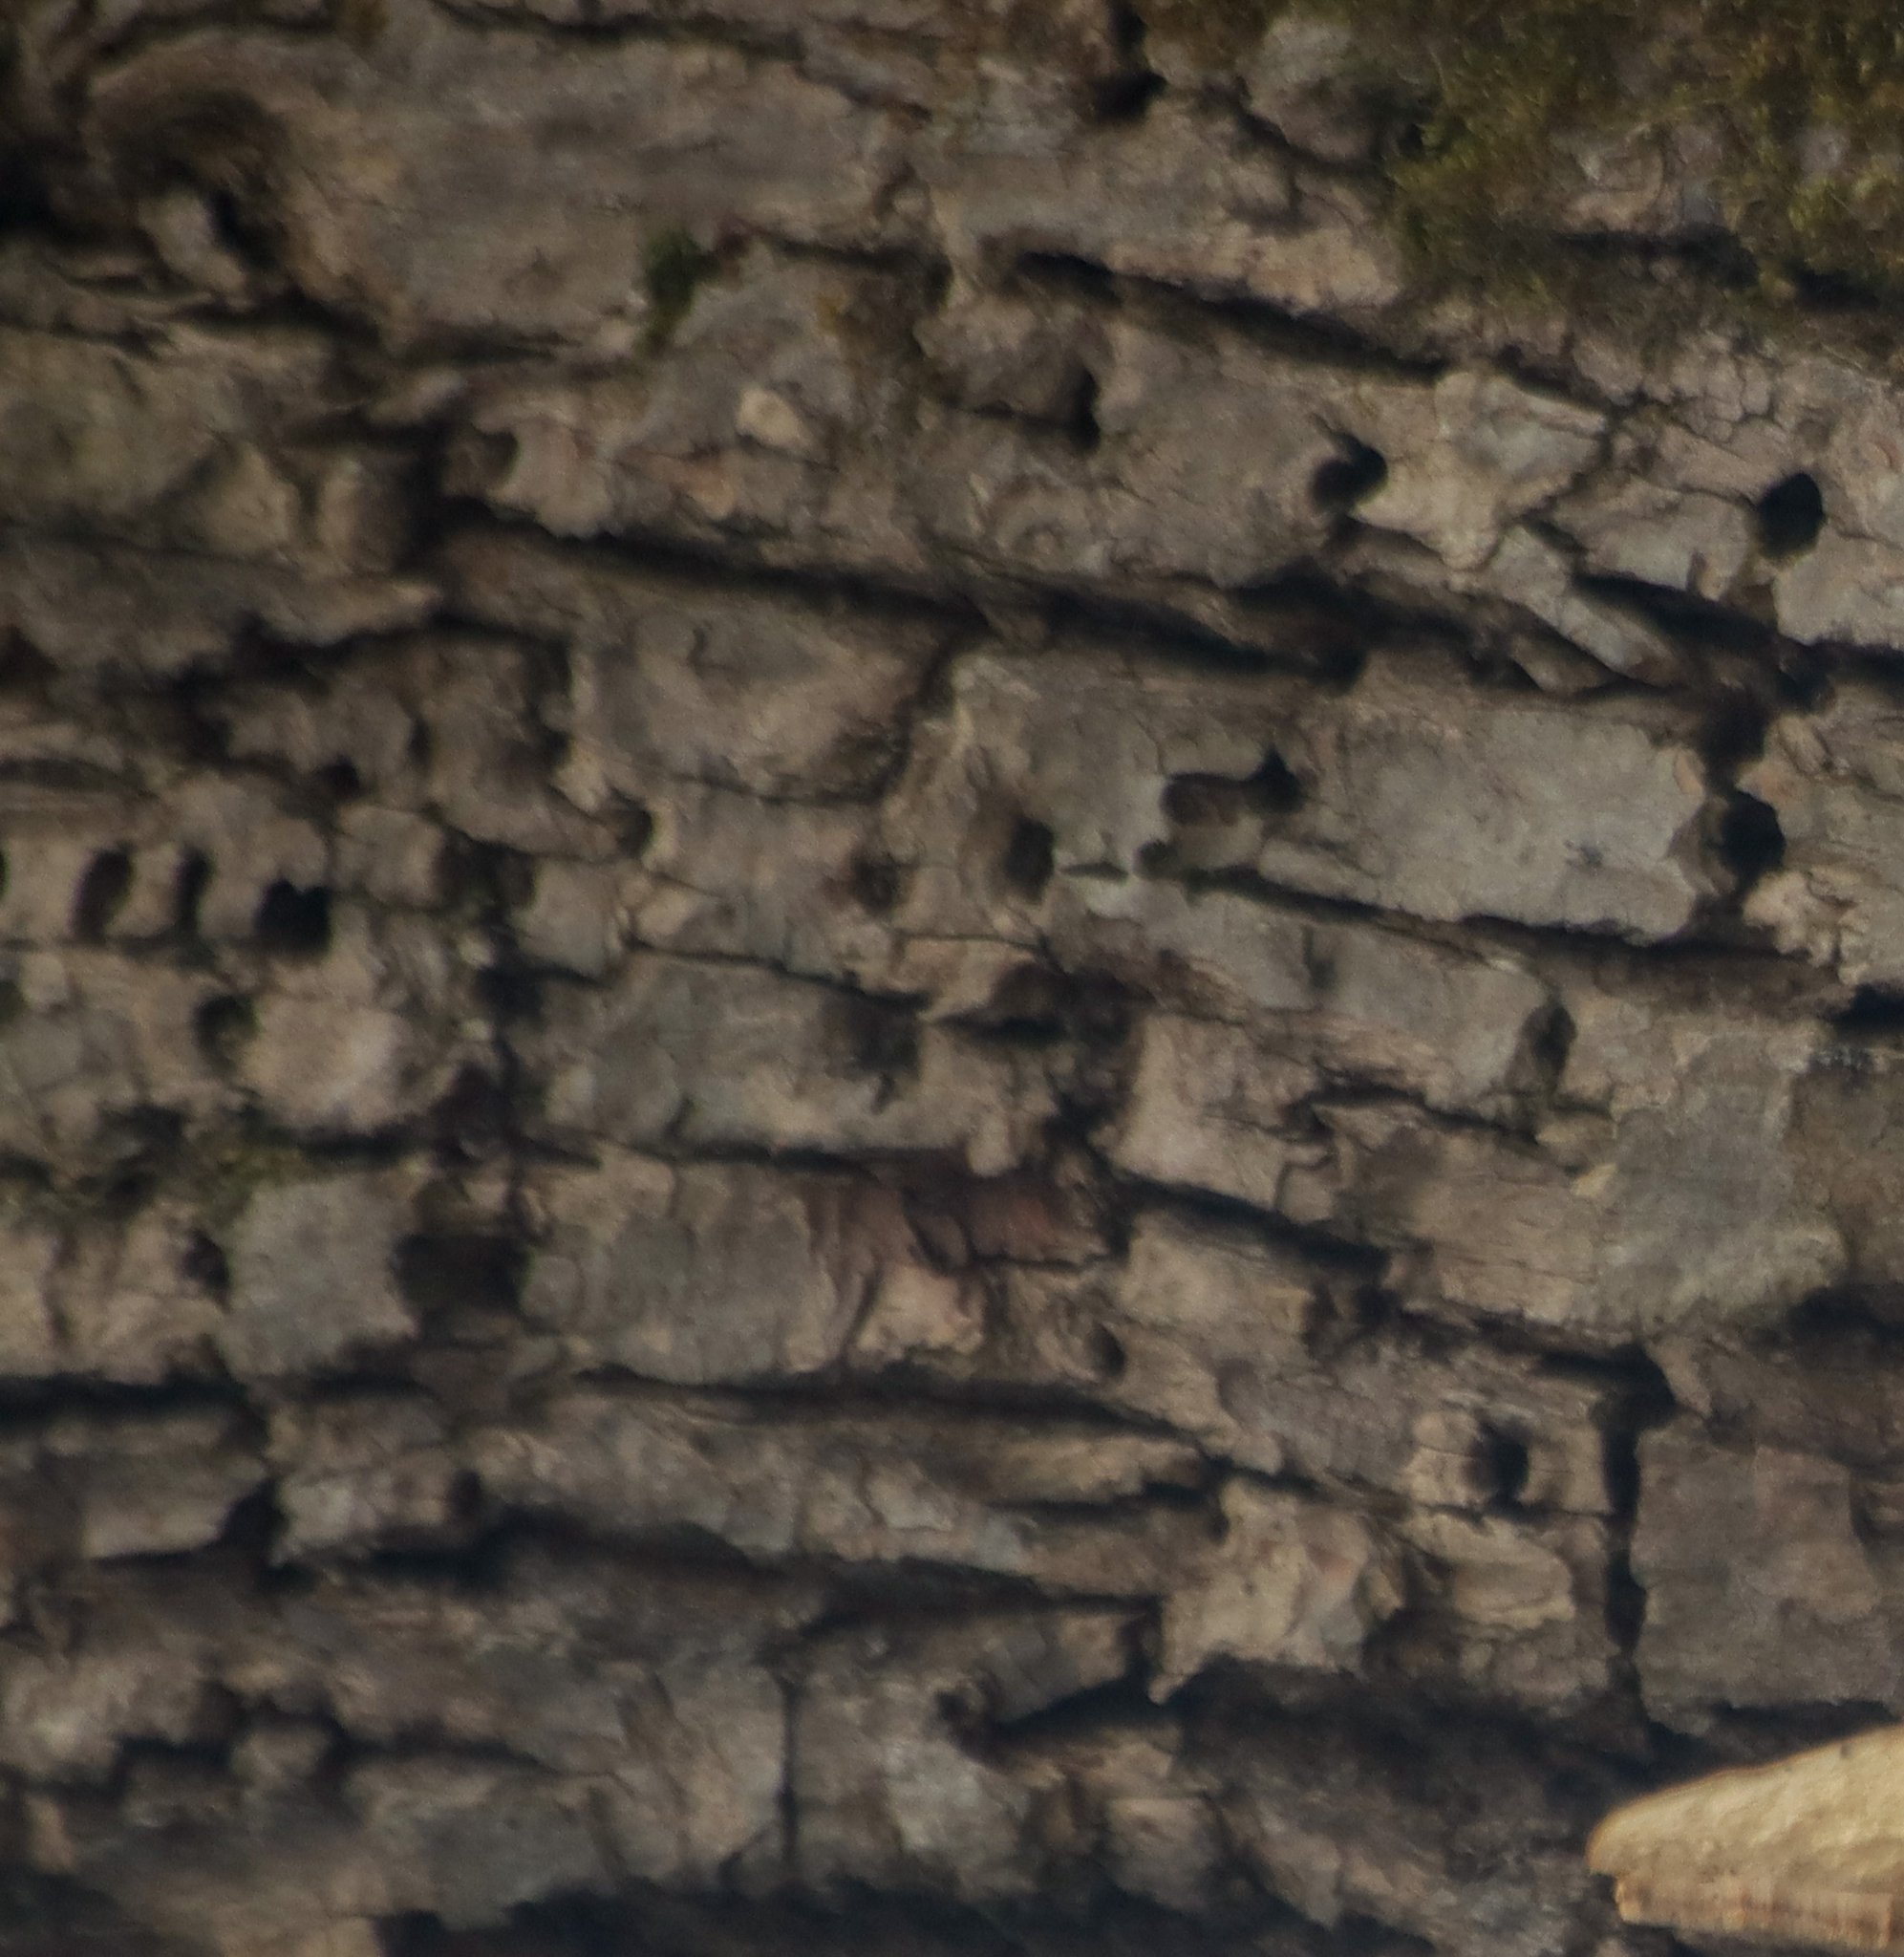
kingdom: Animalia
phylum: Chordata
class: Aves
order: Piciformes
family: Picidae
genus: Sphyrapicus
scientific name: Sphyrapicus varius
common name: Yellow-bellied sapsucker
